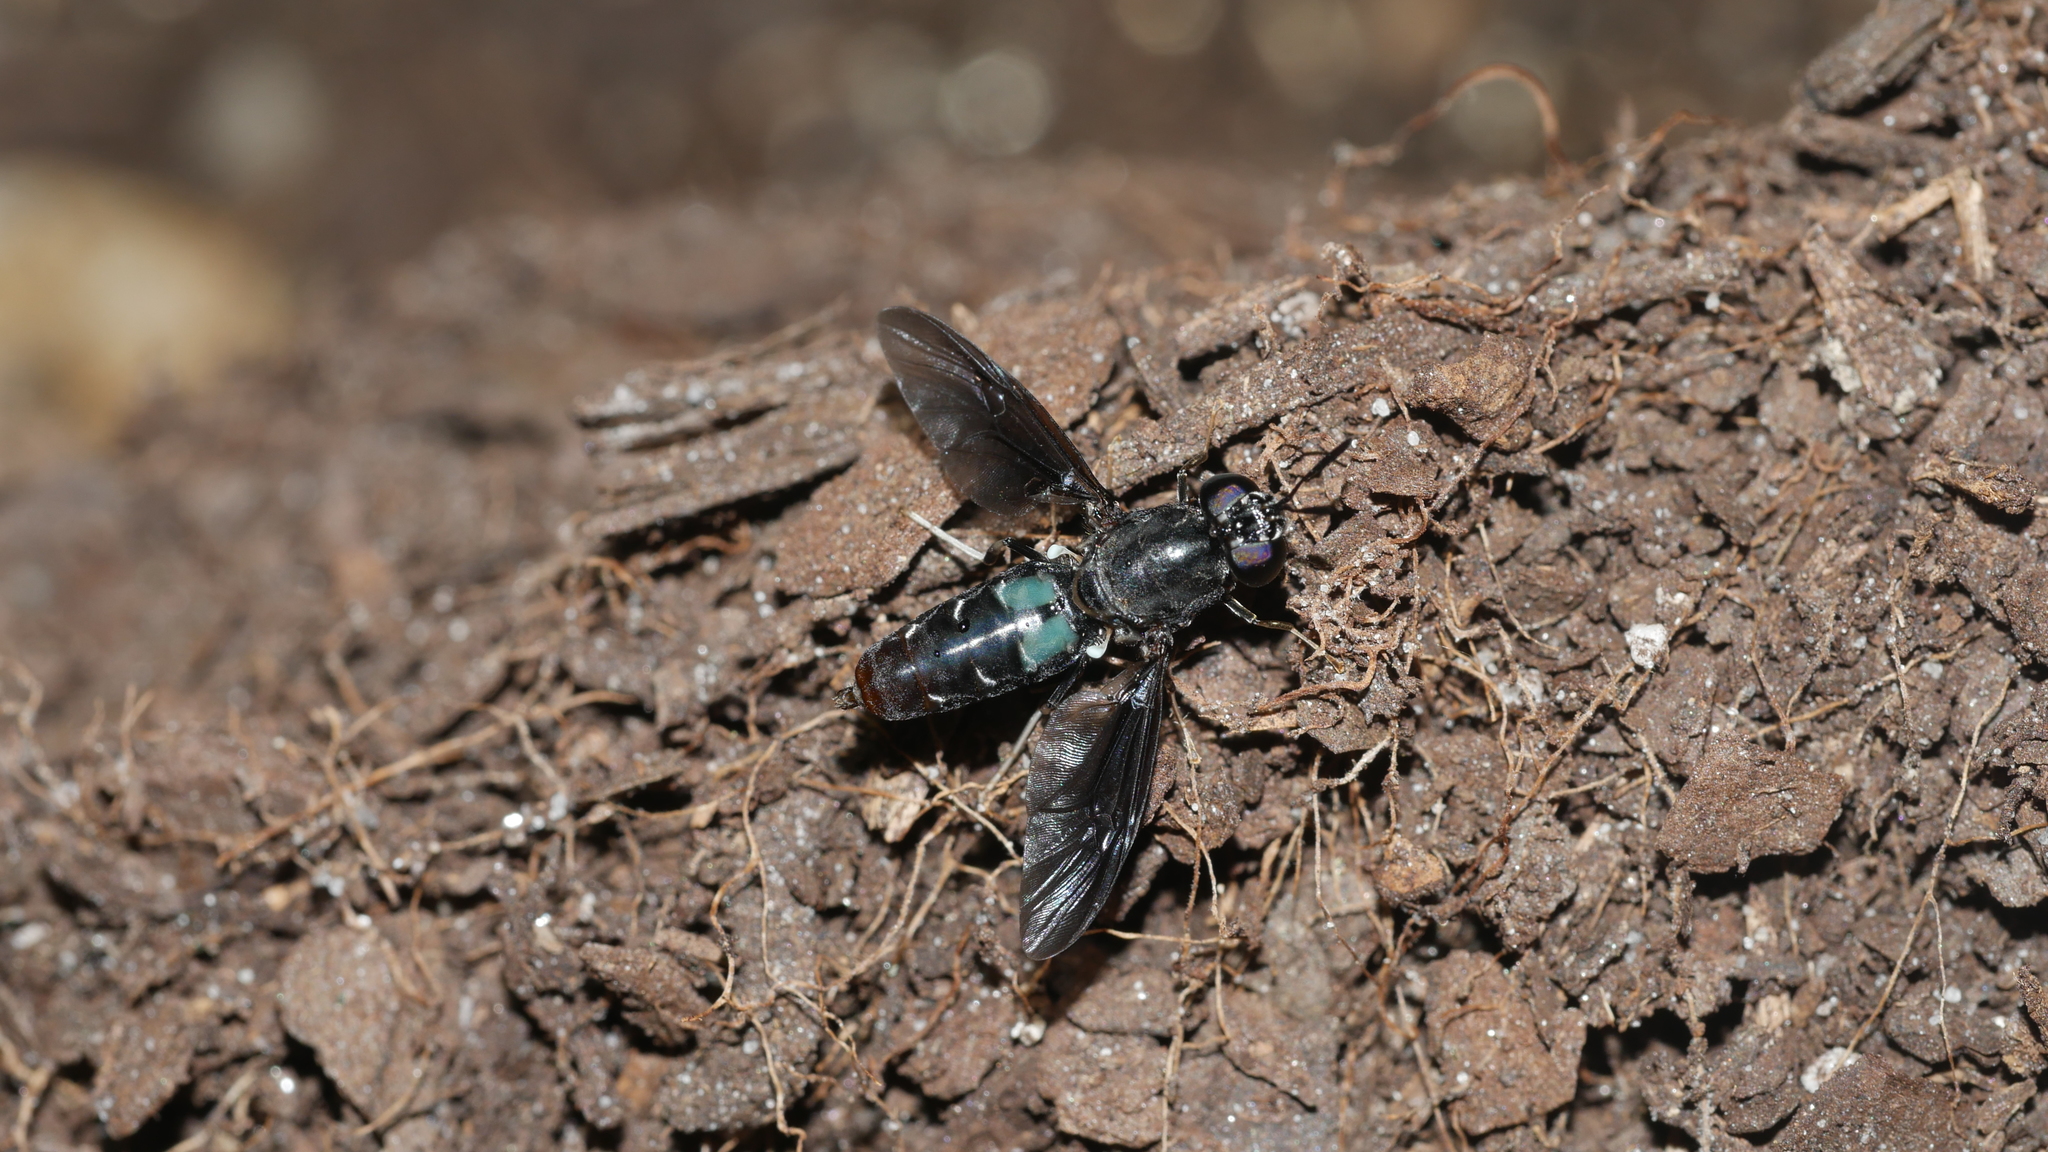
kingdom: Animalia
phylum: Arthropoda
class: Insecta
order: Diptera
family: Stratiomyidae
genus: Hermetia
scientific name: Hermetia illucens
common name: Black soldier fly
